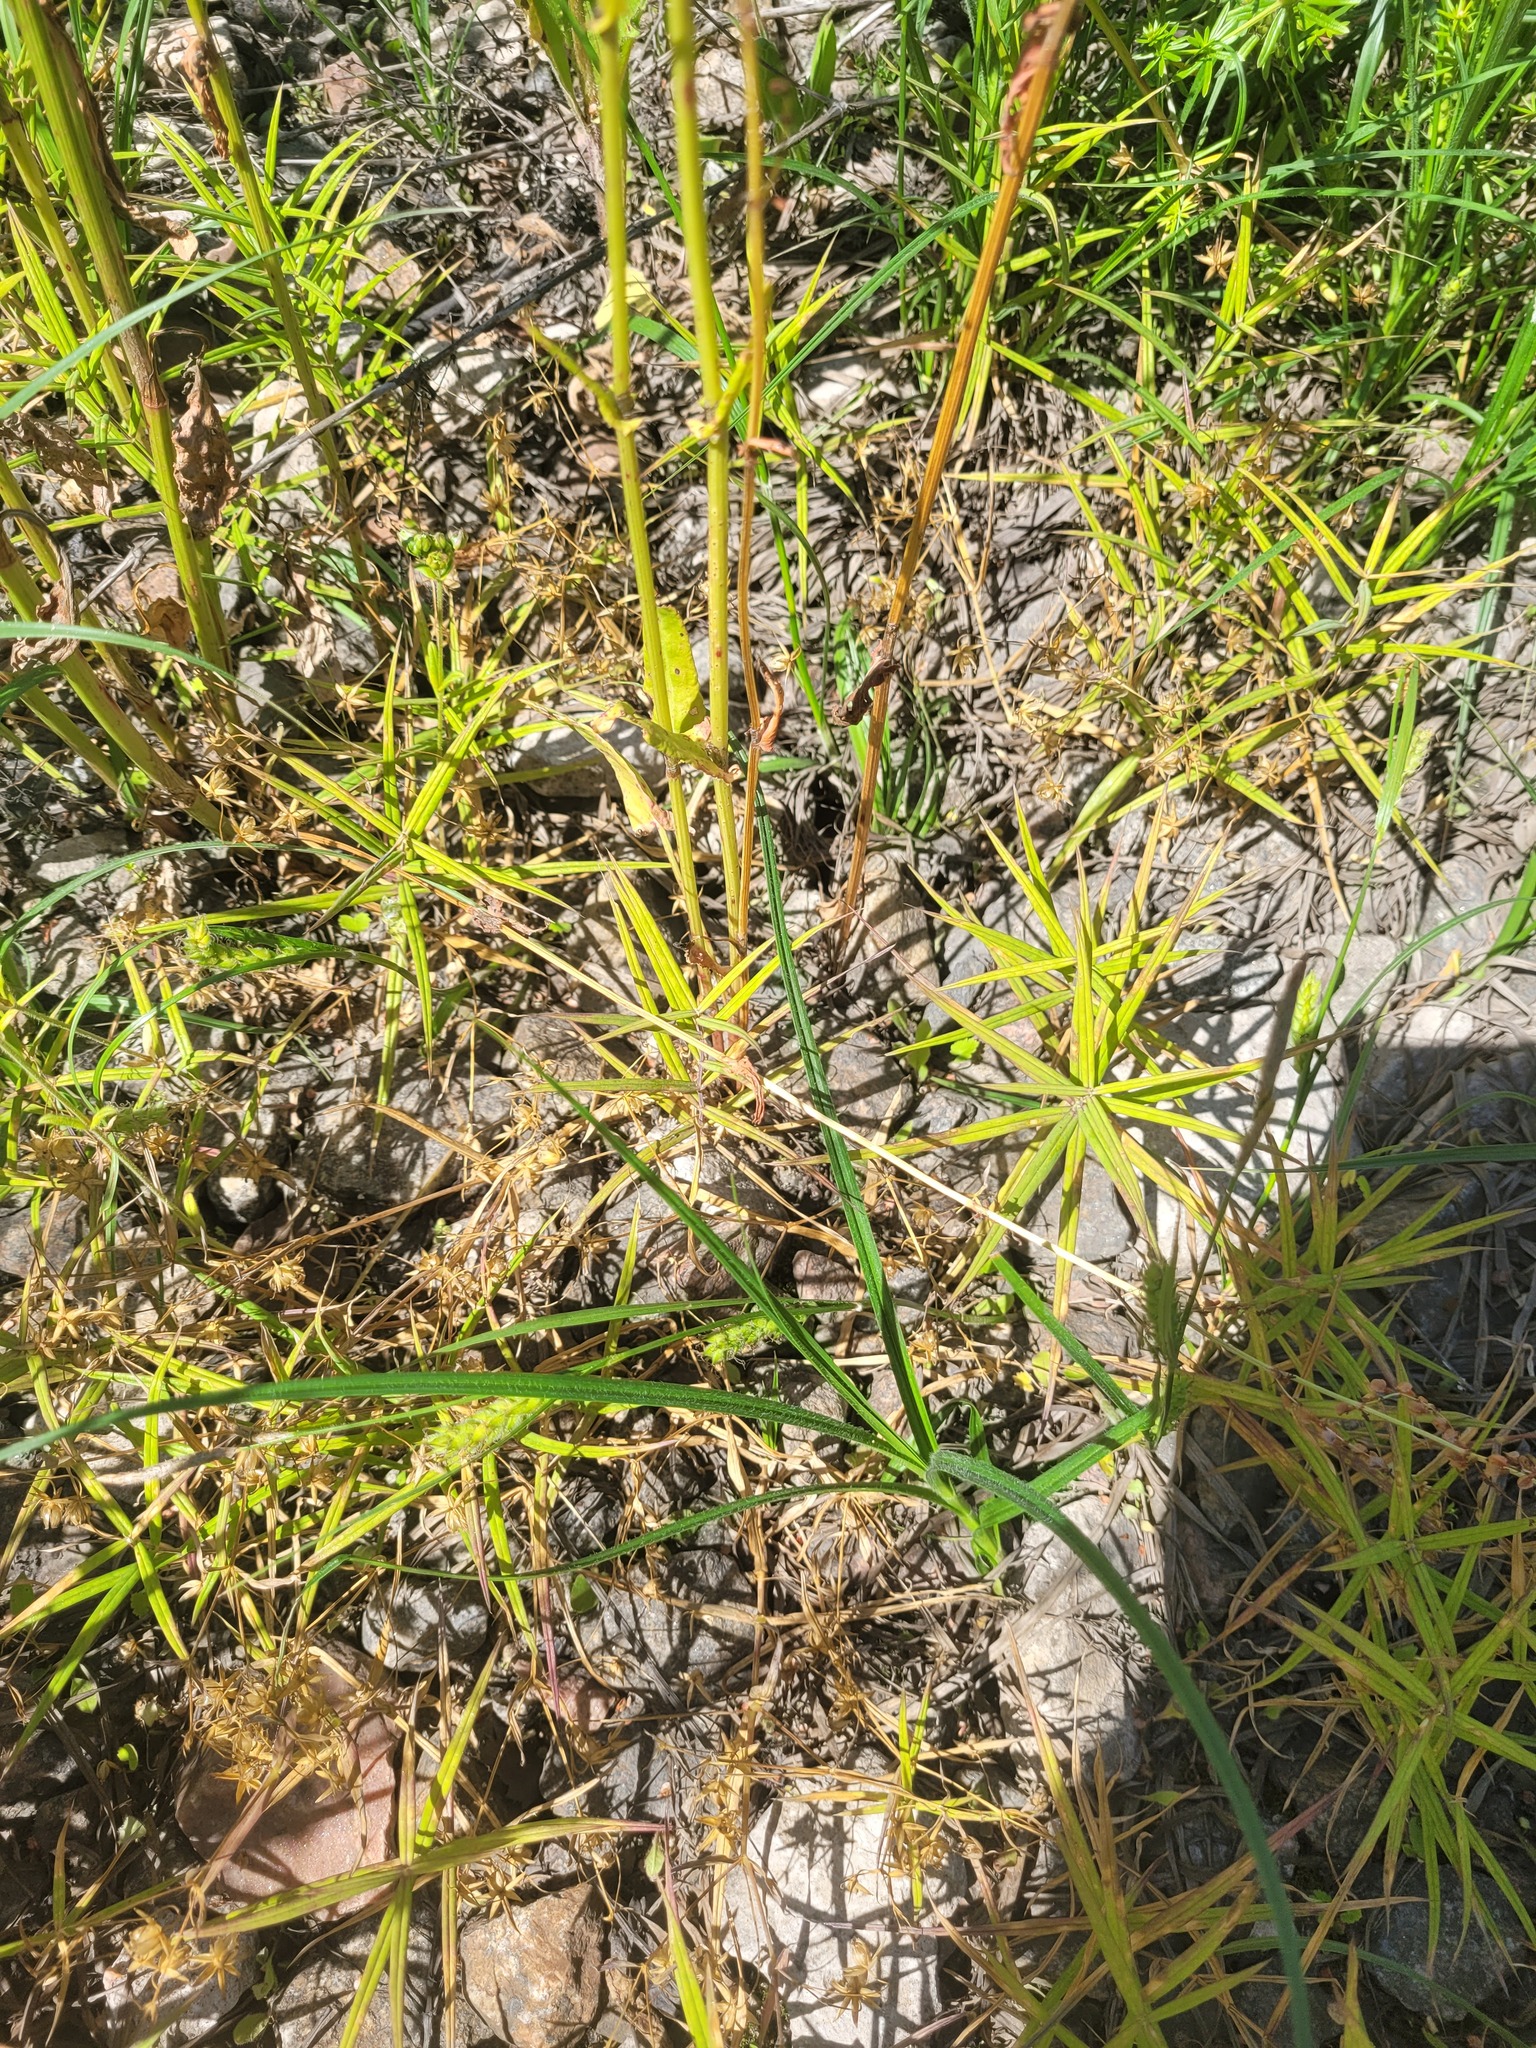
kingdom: Plantae
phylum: Tracheophyta
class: Liliopsida
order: Poales
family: Cyperaceae
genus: Carex
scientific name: Carex hirta
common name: Hairy sedge
